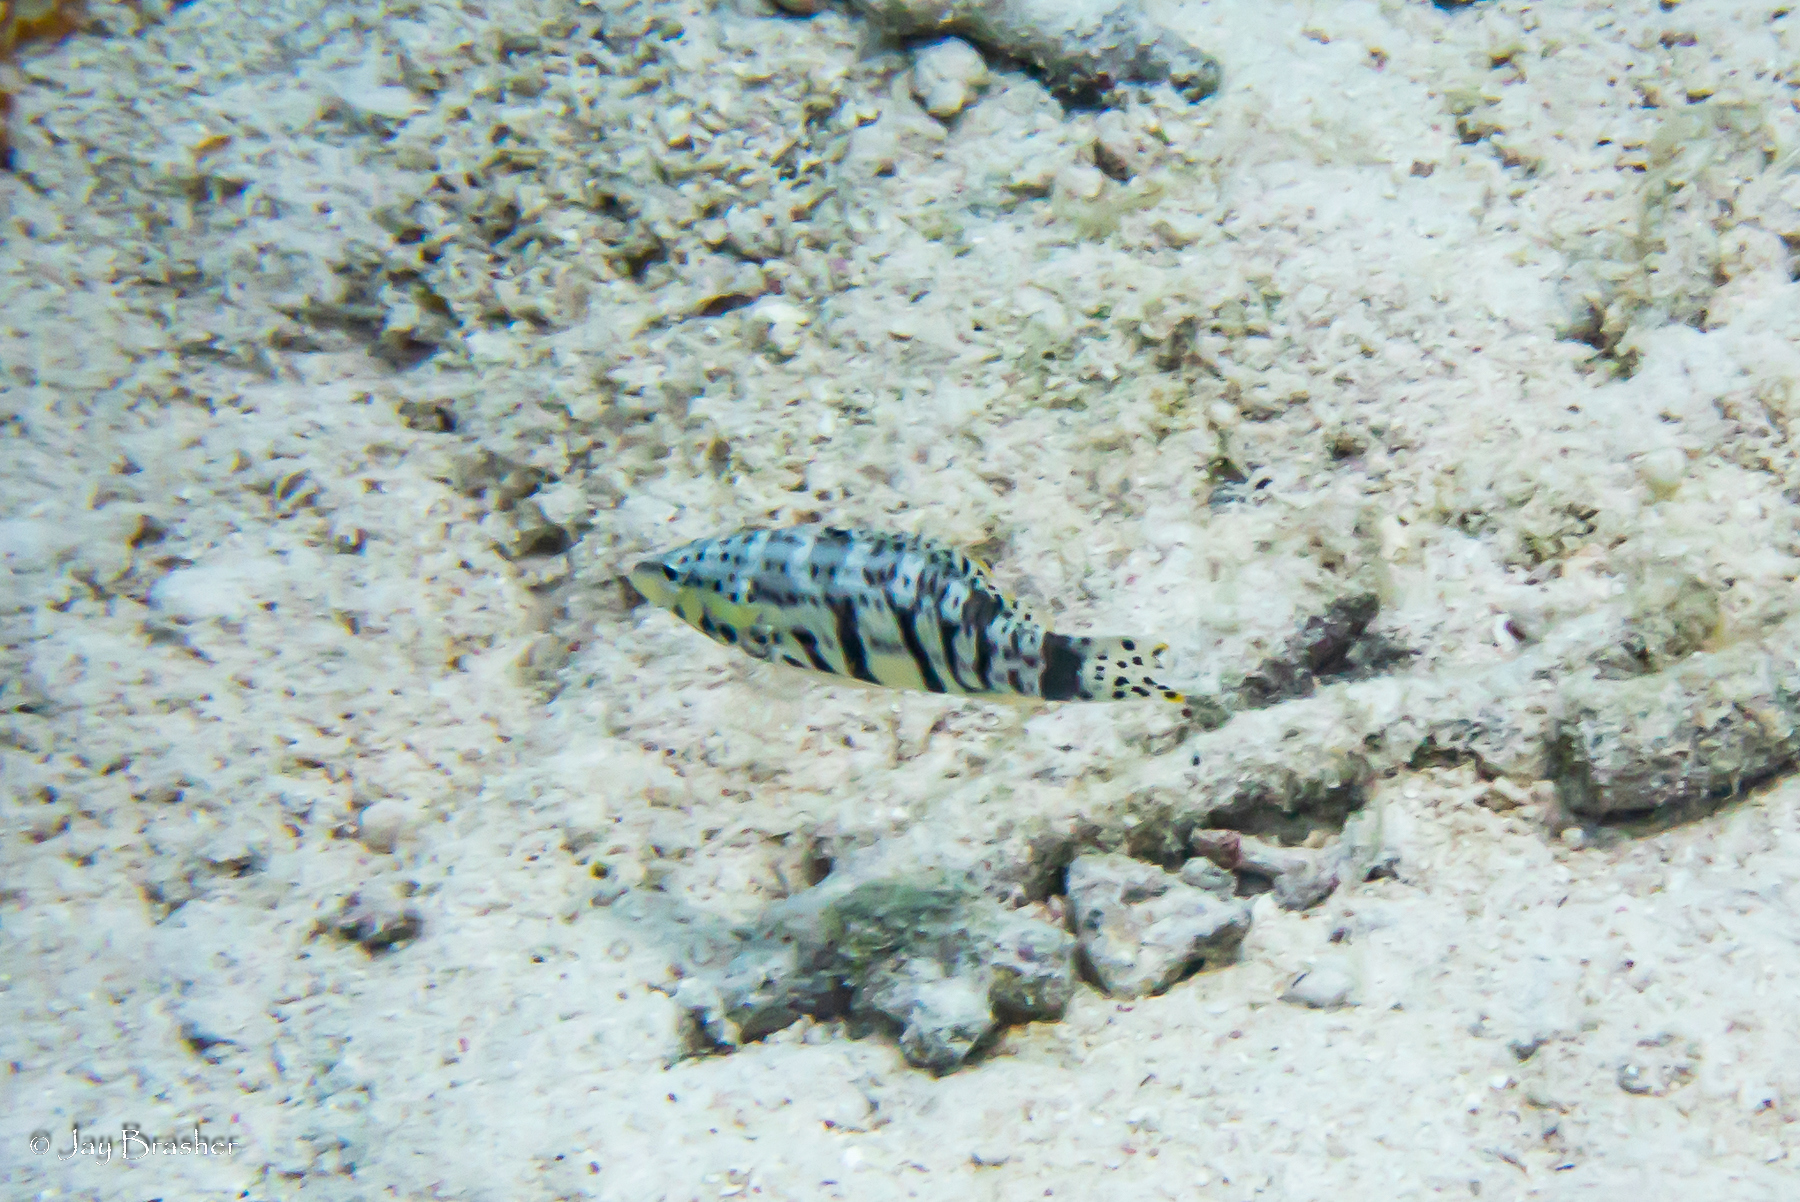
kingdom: Animalia
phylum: Chordata
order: Perciformes
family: Serranidae
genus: Serranus
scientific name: Serranus tigrinus
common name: Harlequin bass
